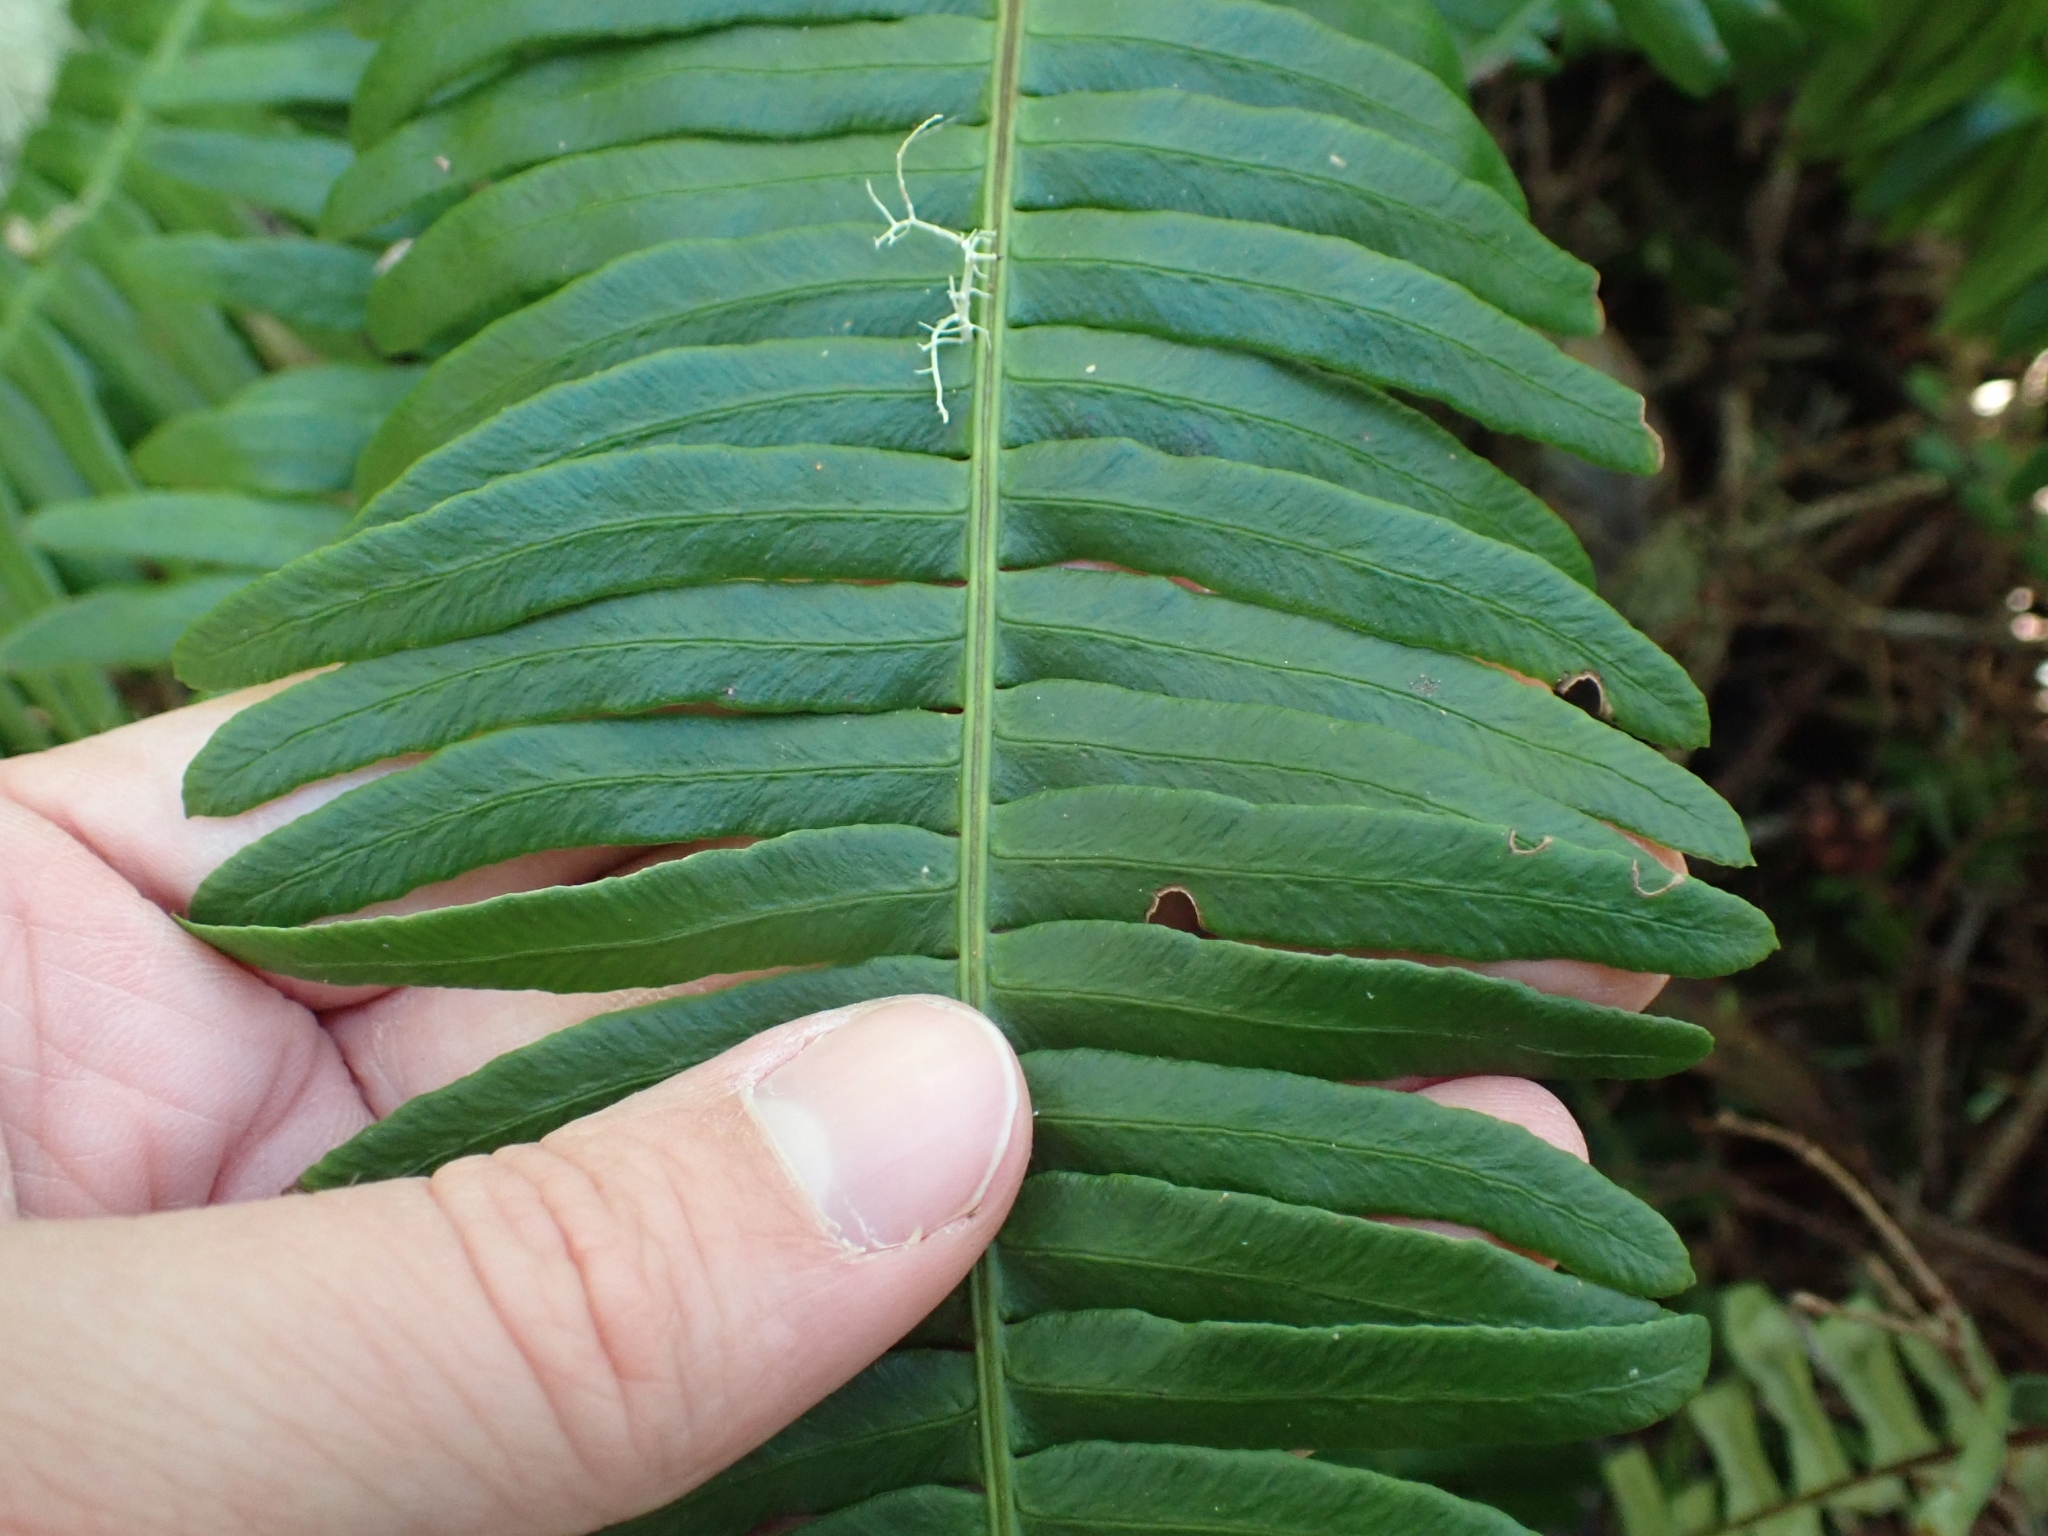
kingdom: Plantae
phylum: Tracheophyta
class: Polypodiopsida
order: Polypodiales
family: Blechnaceae
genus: Struthiopteris
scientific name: Struthiopteris spicant
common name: Deer fern
